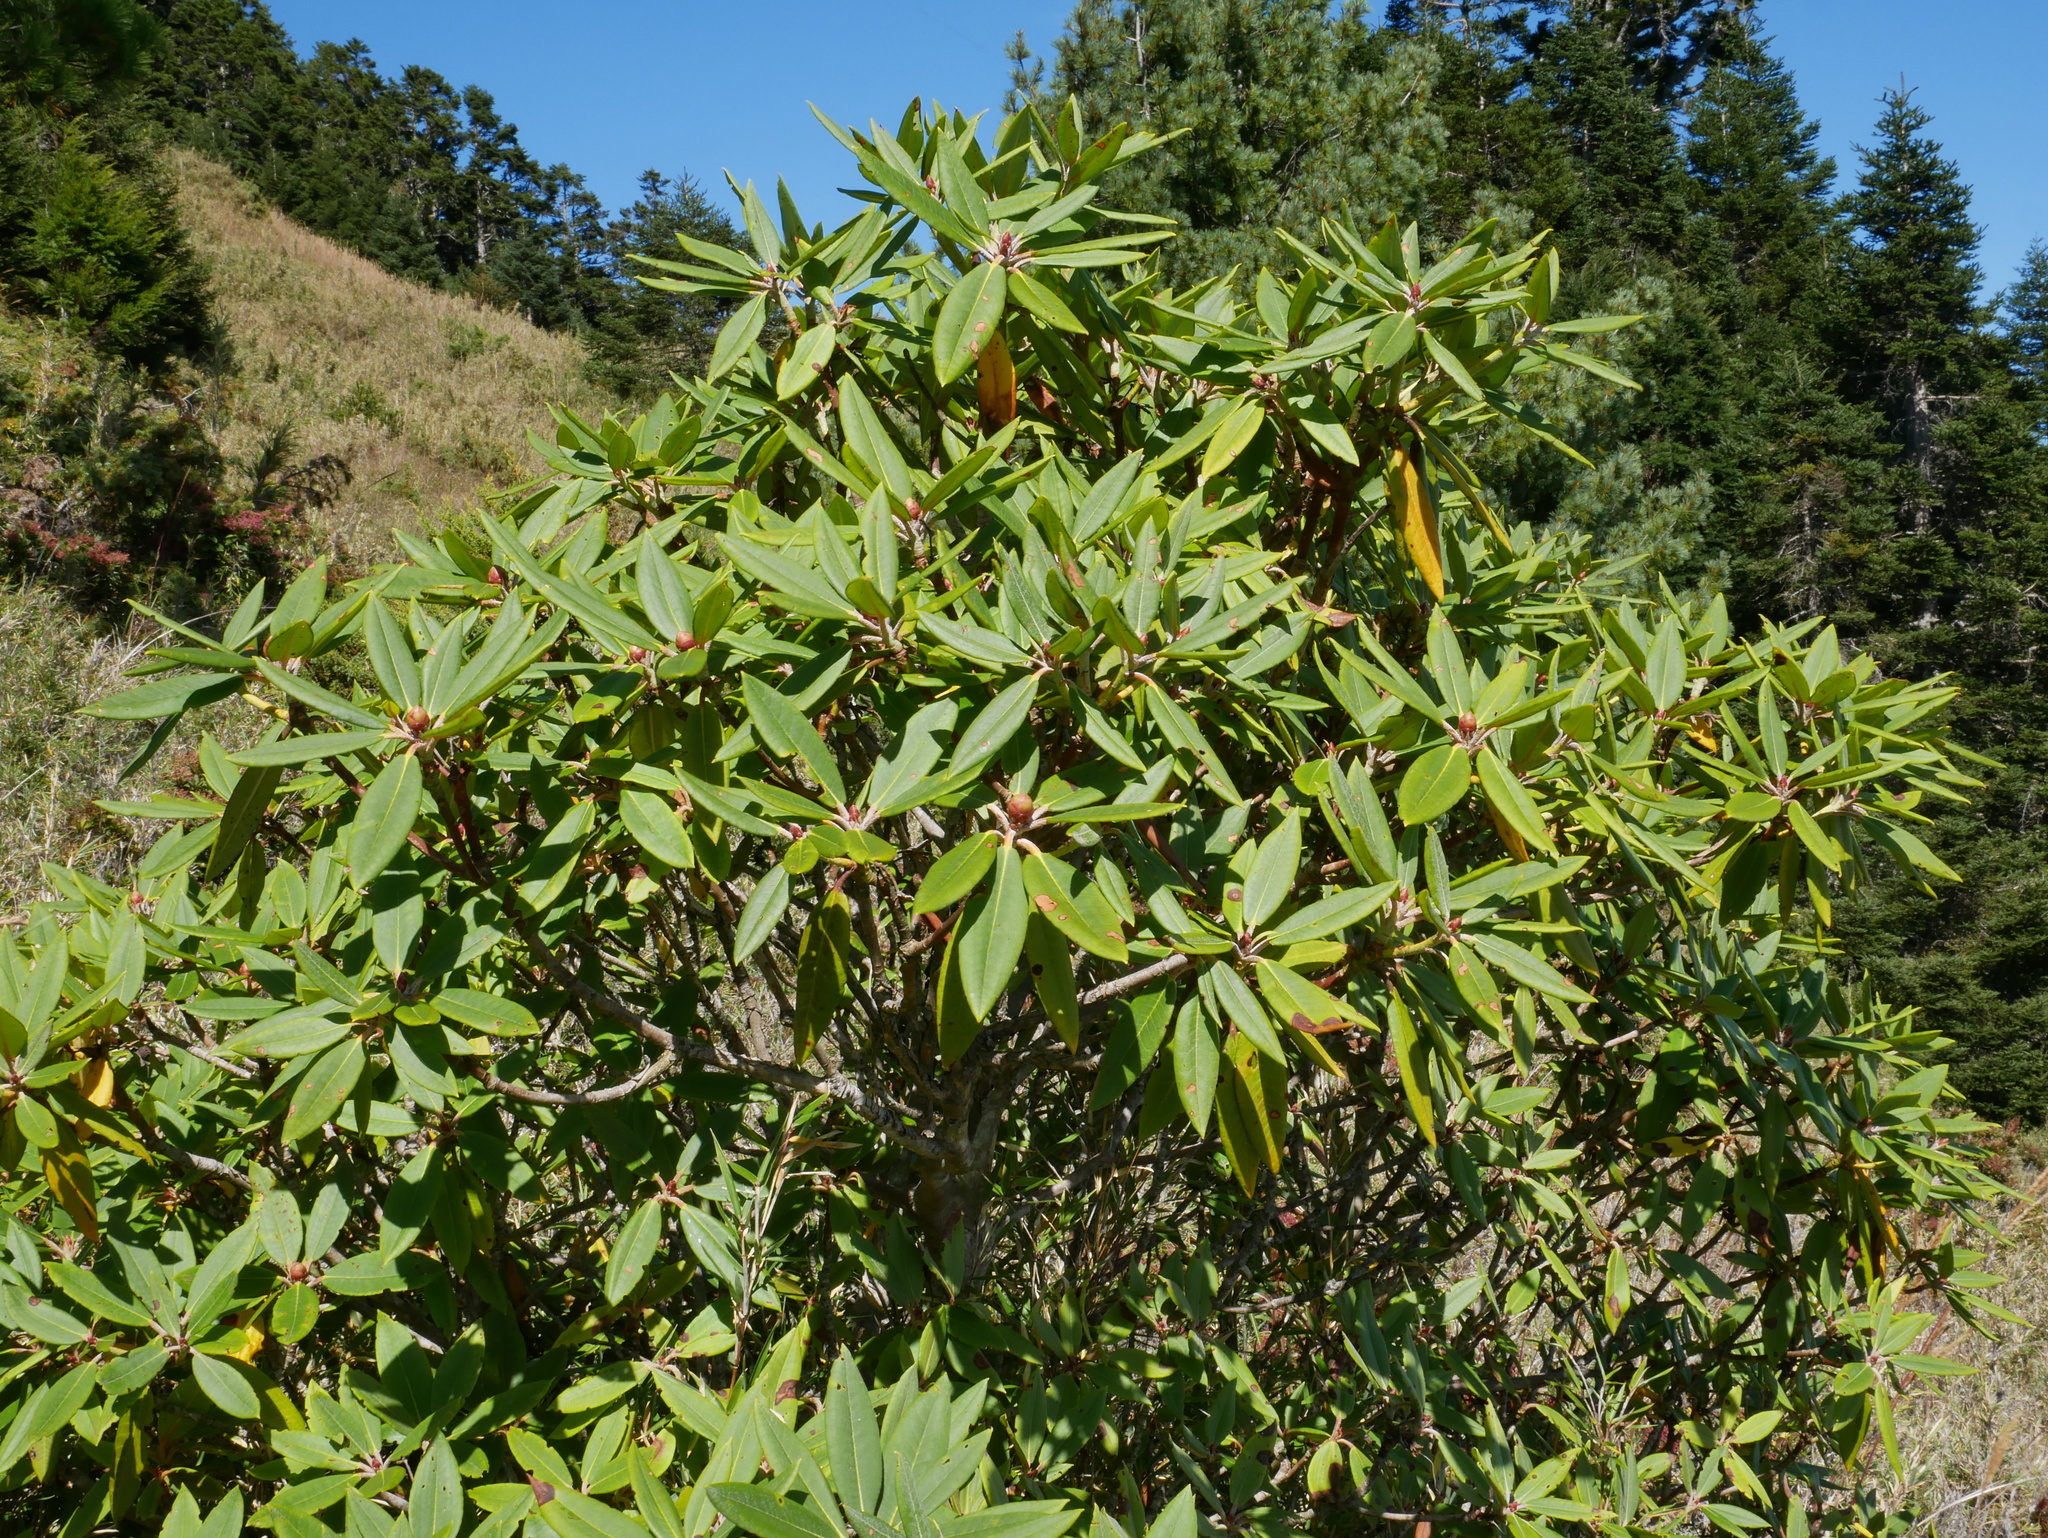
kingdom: Plantae
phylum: Tracheophyta
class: Magnoliopsida
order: Ericales
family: Ericaceae
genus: Rhododendron
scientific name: Rhododendron pseudochrysanthum
